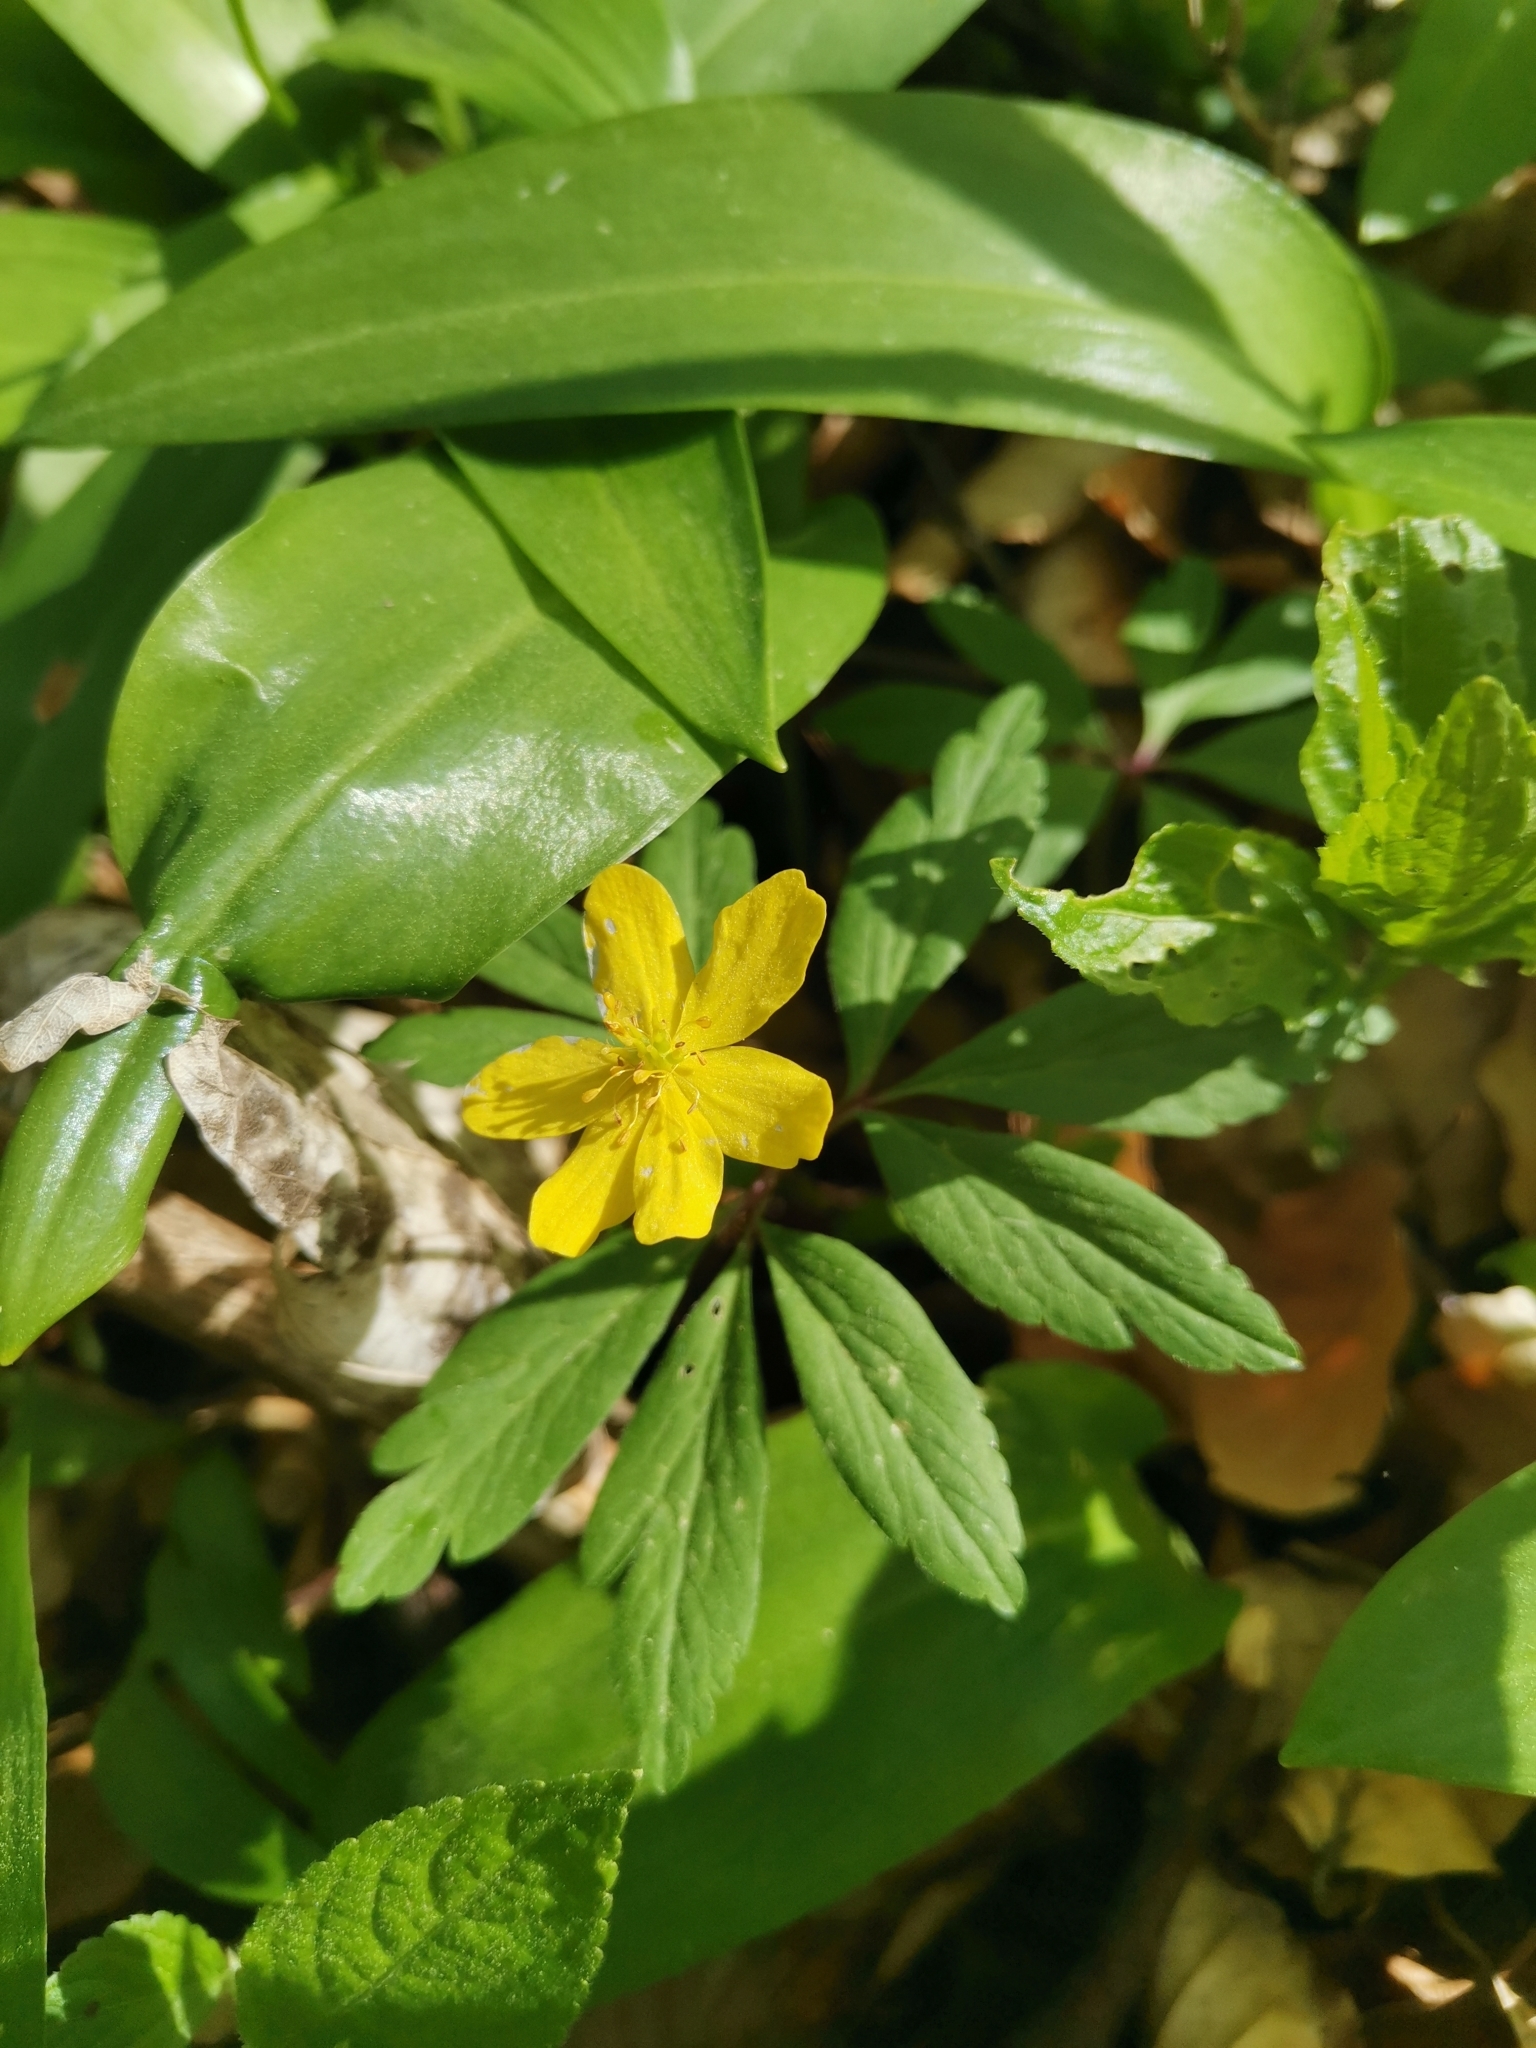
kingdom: Plantae
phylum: Tracheophyta
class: Magnoliopsida
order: Ranunculales
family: Ranunculaceae
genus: Anemone
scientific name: Anemone ranunculoides
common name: Yellow anemone
